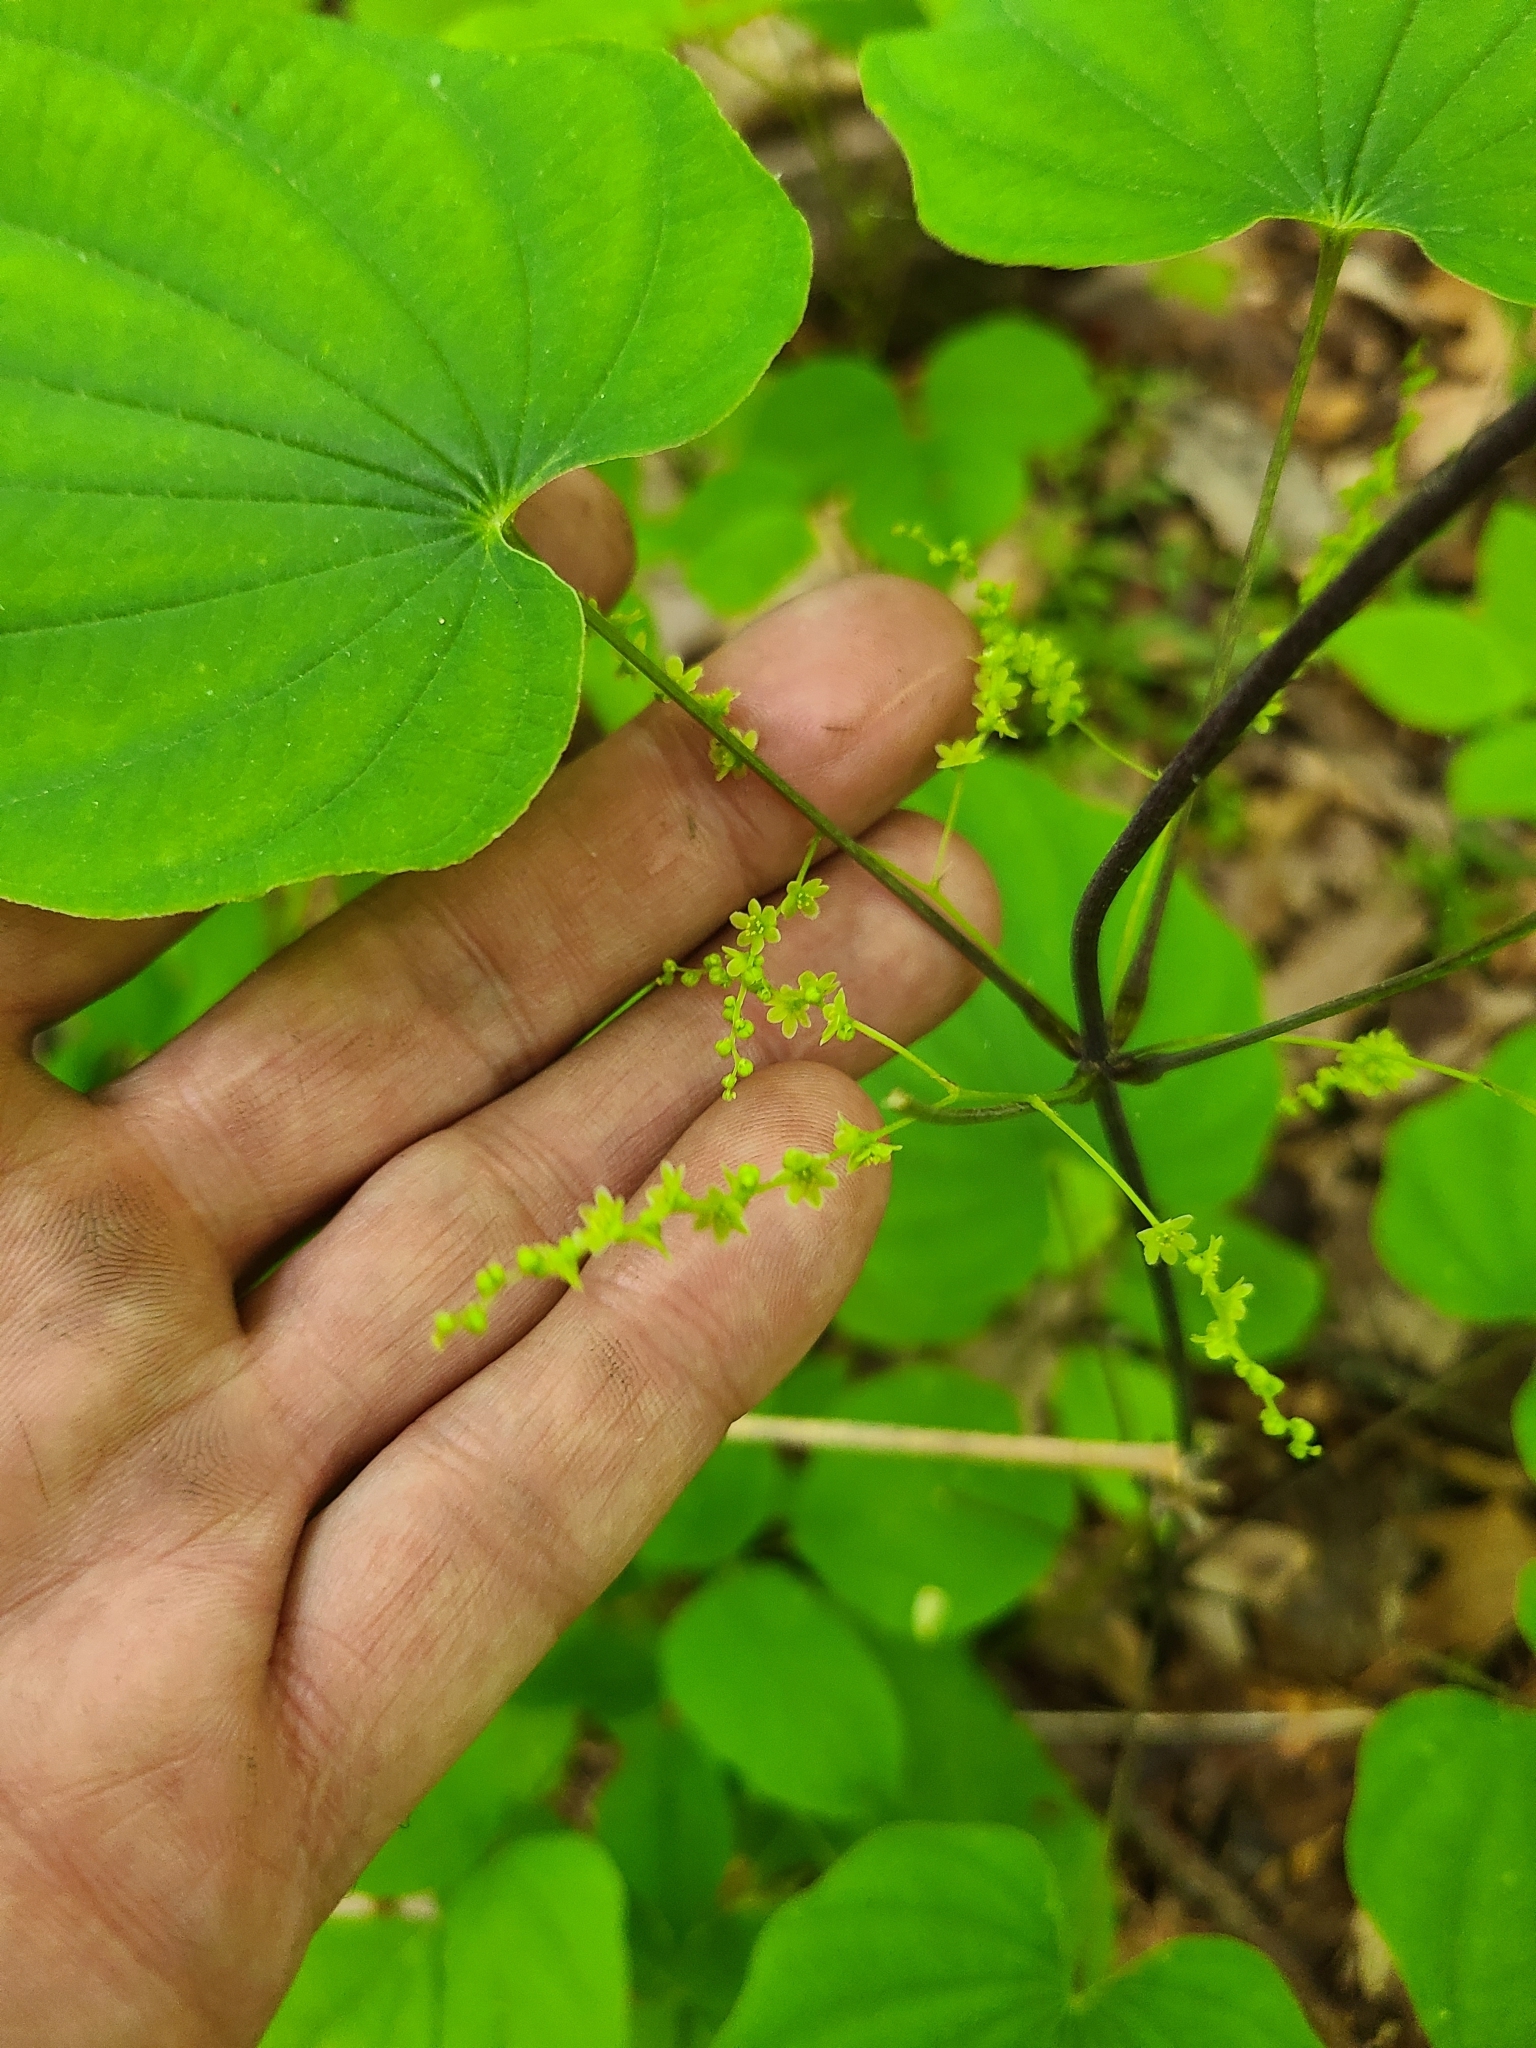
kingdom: Plantae
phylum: Tracheophyta
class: Liliopsida
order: Dioscoreales
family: Dioscoreaceae
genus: Dioscorea
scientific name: Dioscorea villosa
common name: Wild yam
